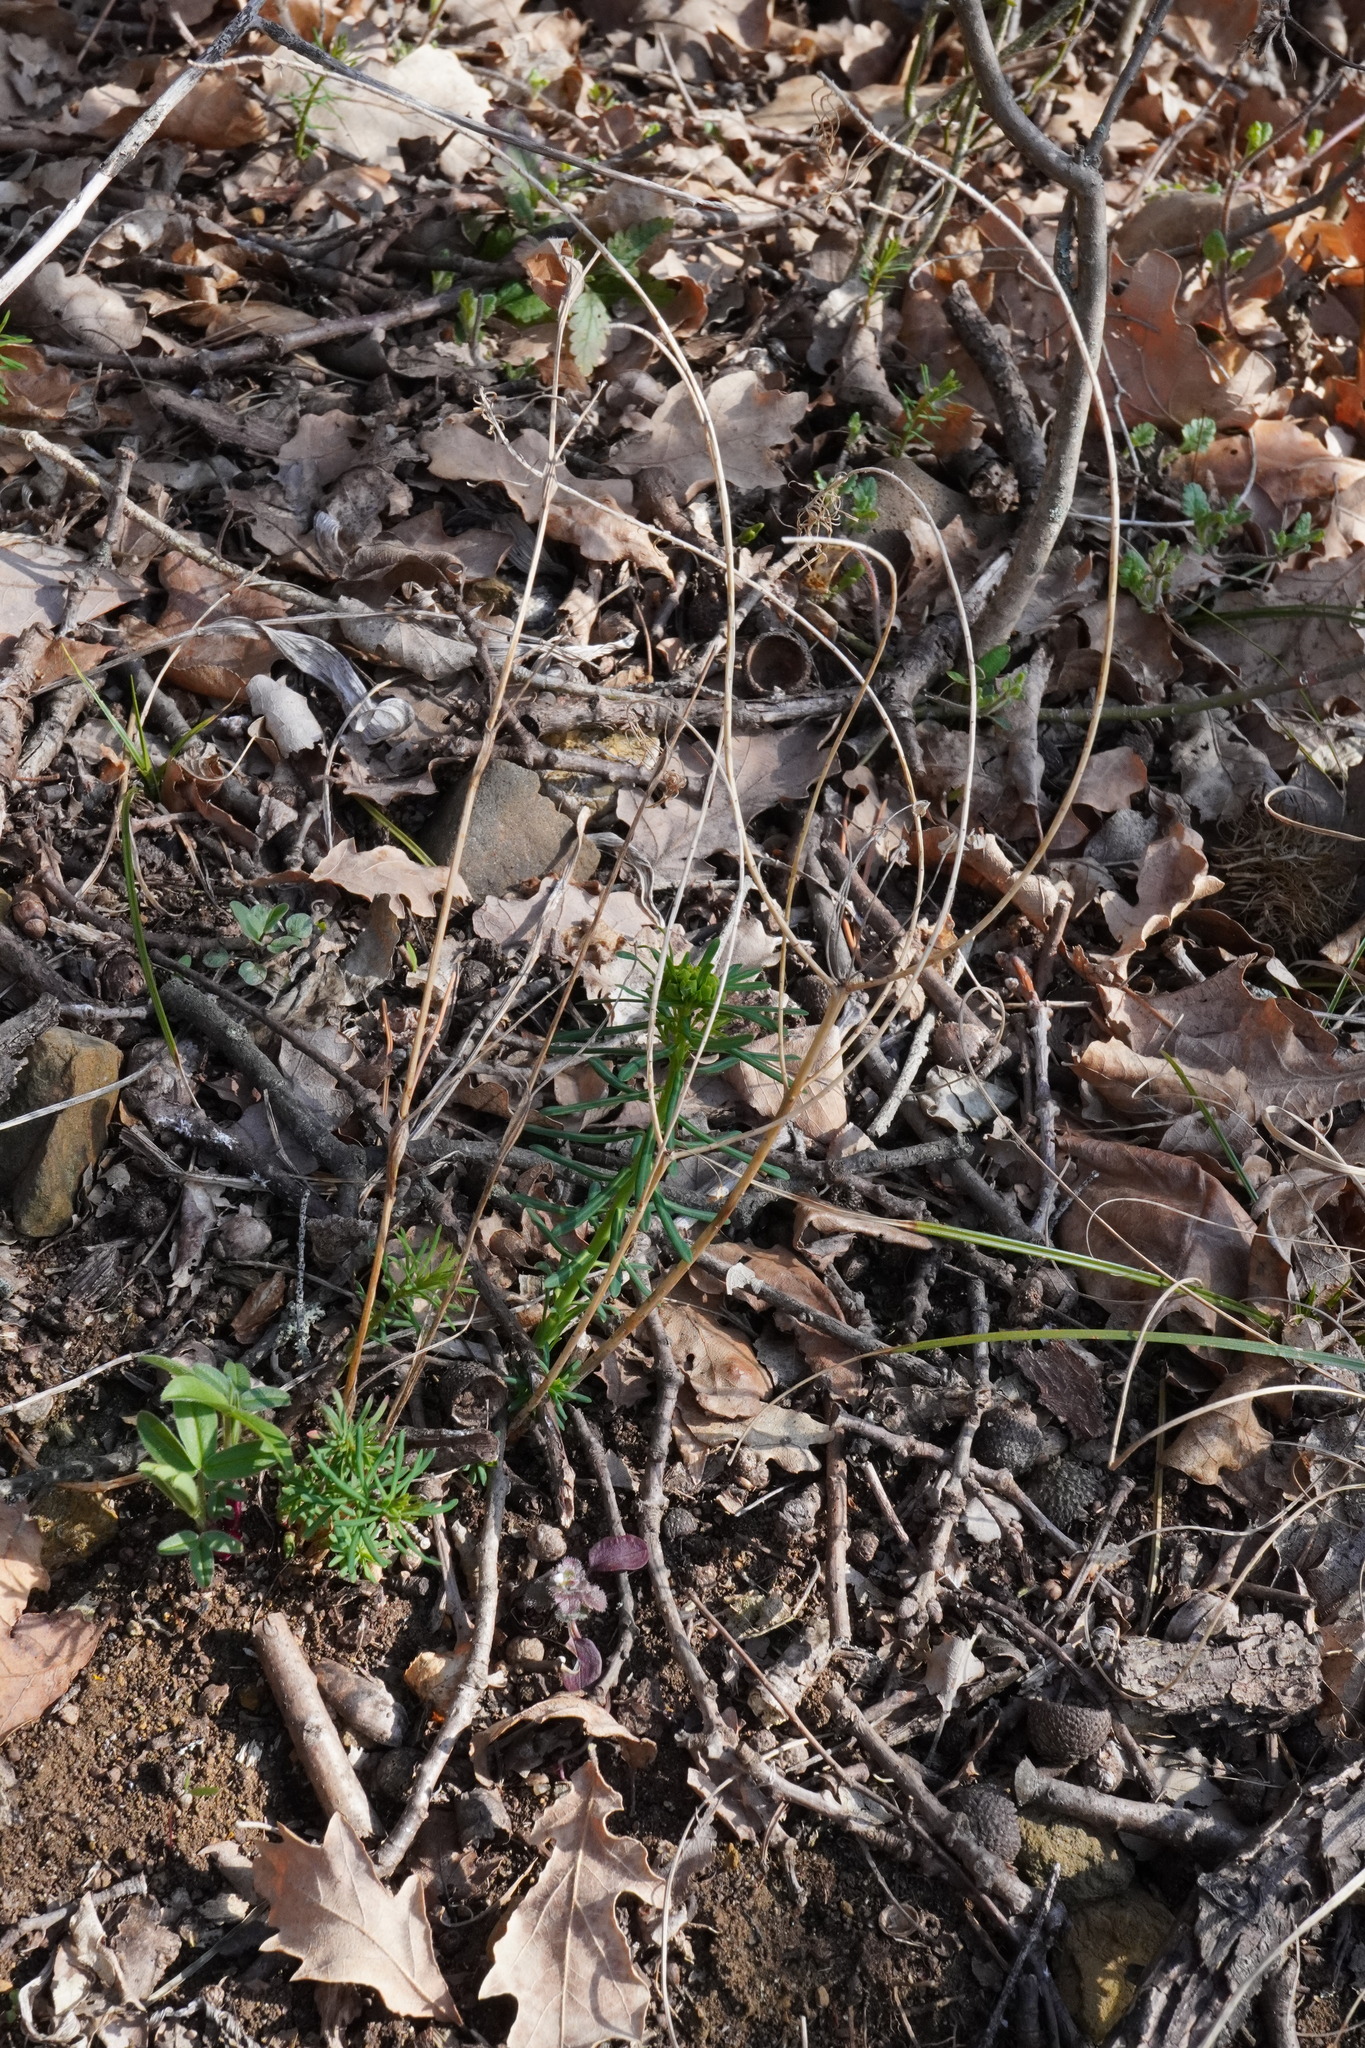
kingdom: Plantae
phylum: Tracheophyta
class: Magnoliopsida
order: Malpighiales
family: Euphorbiaceae
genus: Euphorbia
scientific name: Euphorbia cyparissias
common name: Cypress spurge
